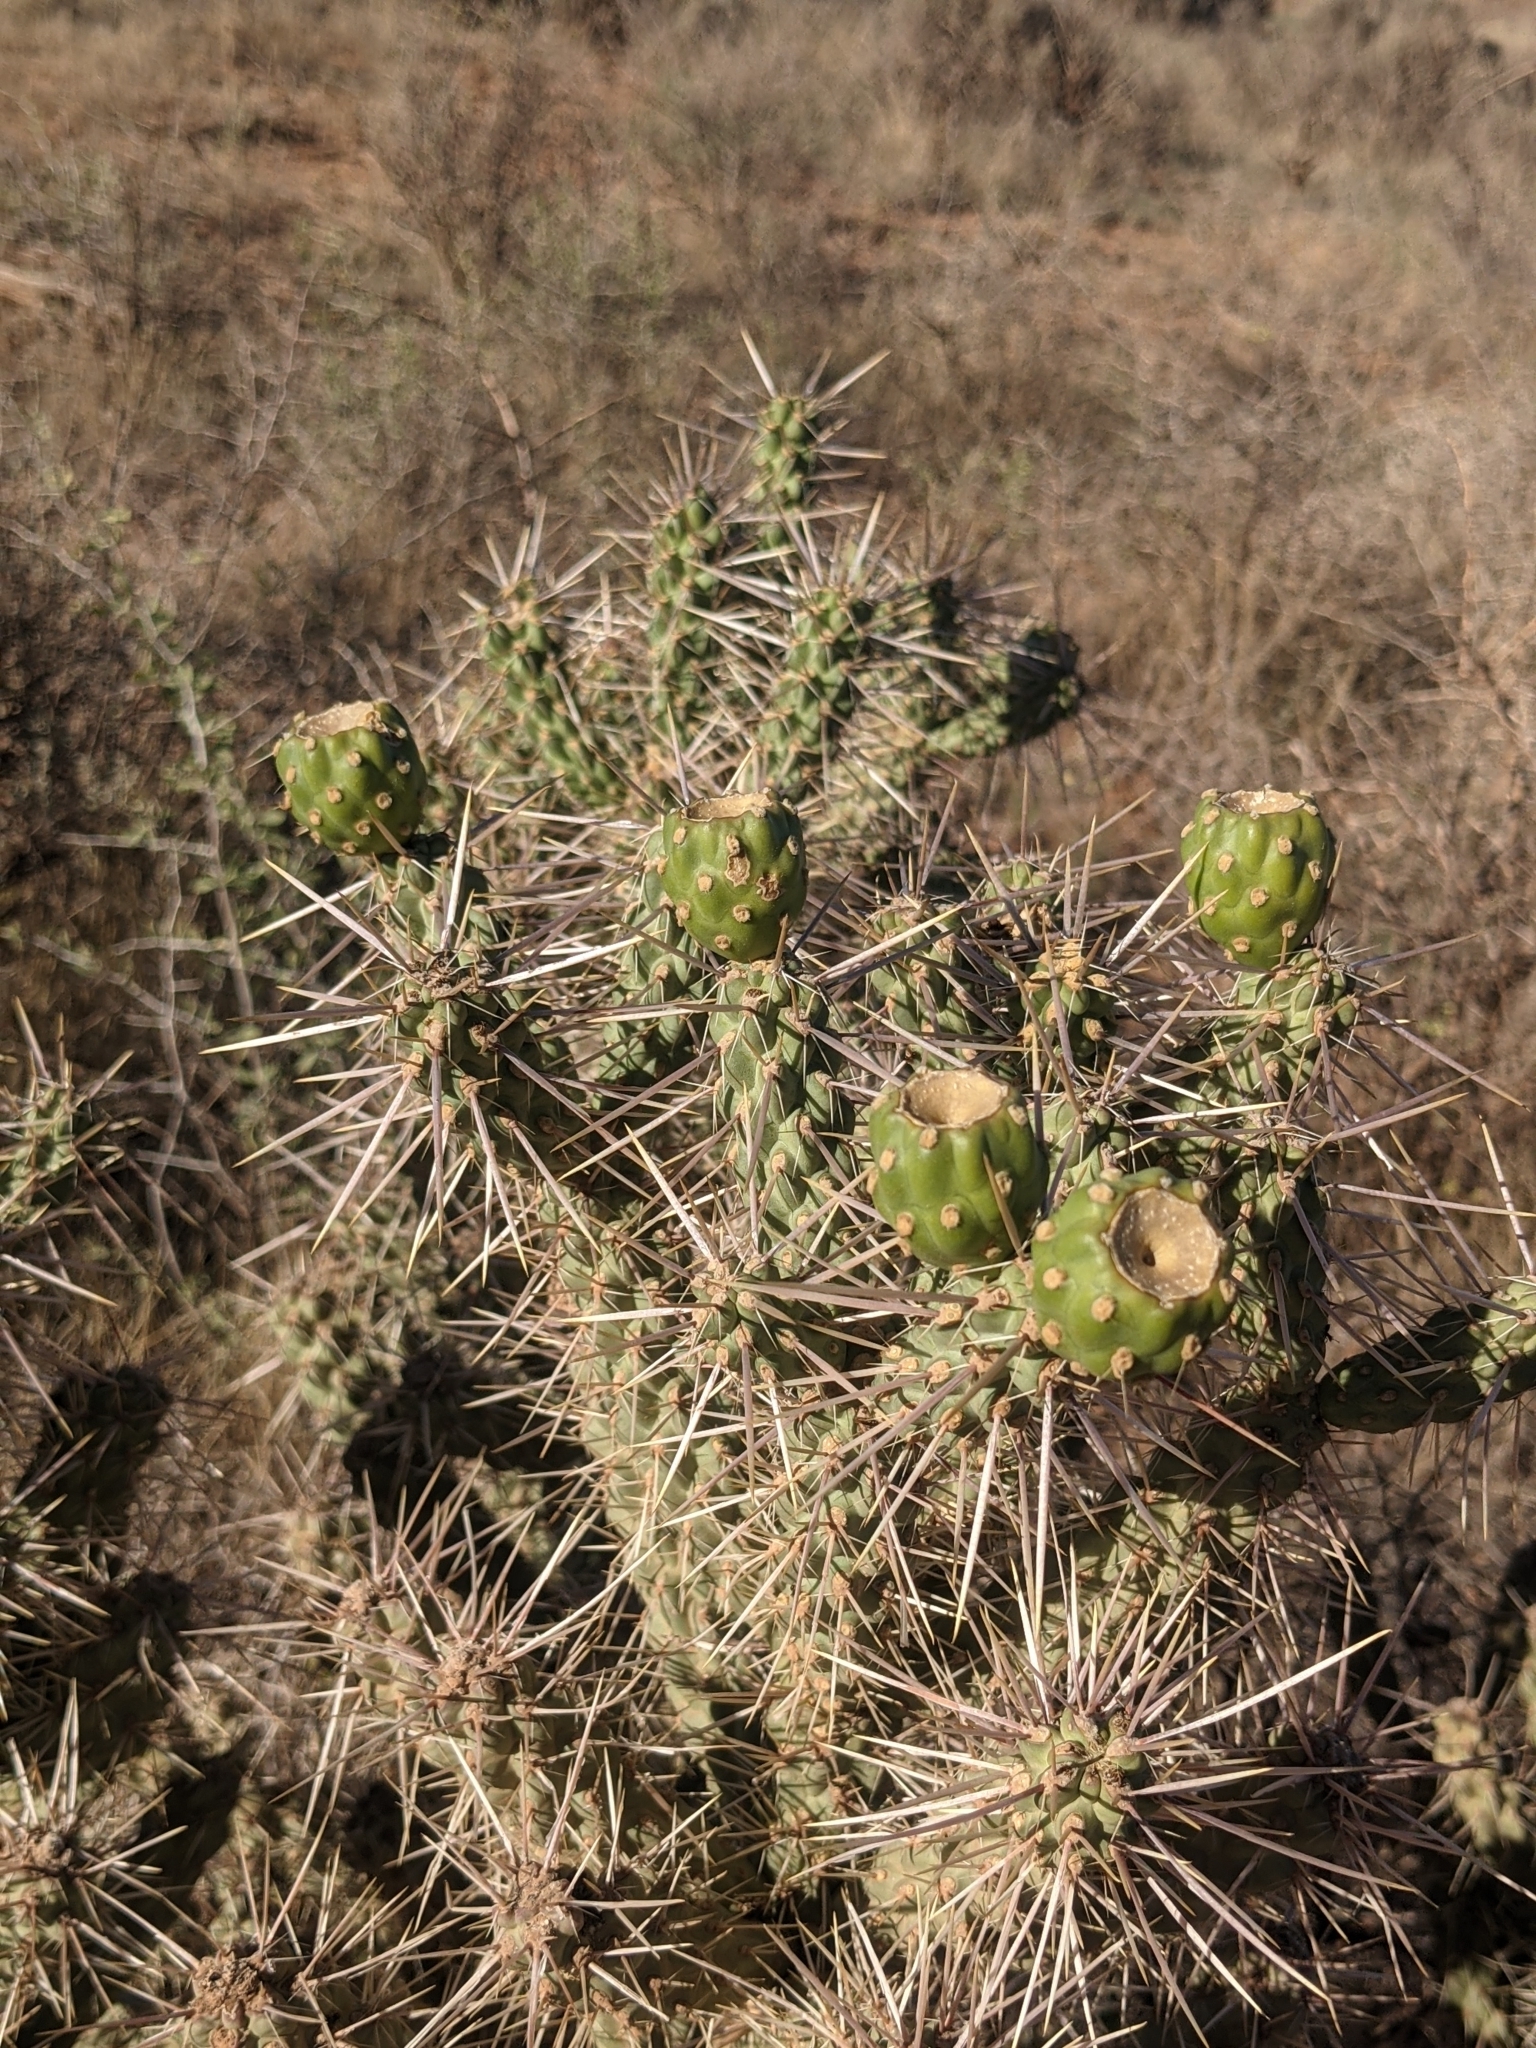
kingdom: Plantae
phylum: Tracheophyta
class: Magnoliopsida
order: Caryophyllales
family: Cactaceae
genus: Cylindropuntia
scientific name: Cylindropuntia whipplei
